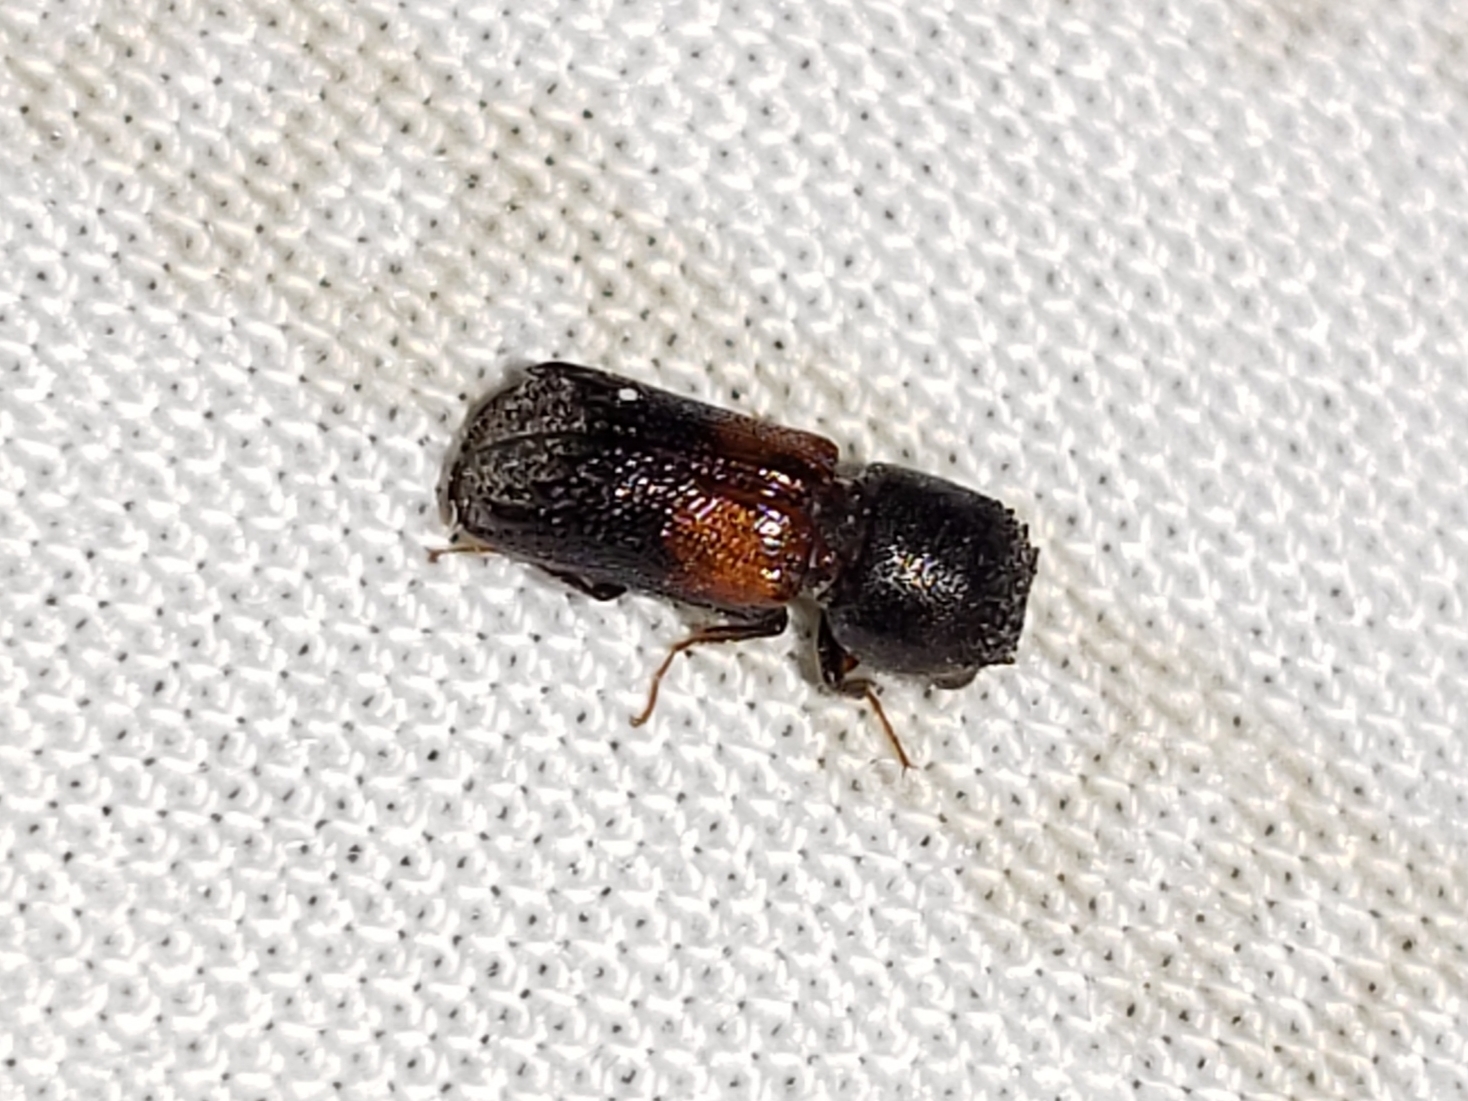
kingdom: Animalia
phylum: Arthropoda
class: Insecta
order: Coleoptera
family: Bostrichidae
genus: Xylobiops
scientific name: Xylobiops basilaris
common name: Red-shouldered bostrichid
